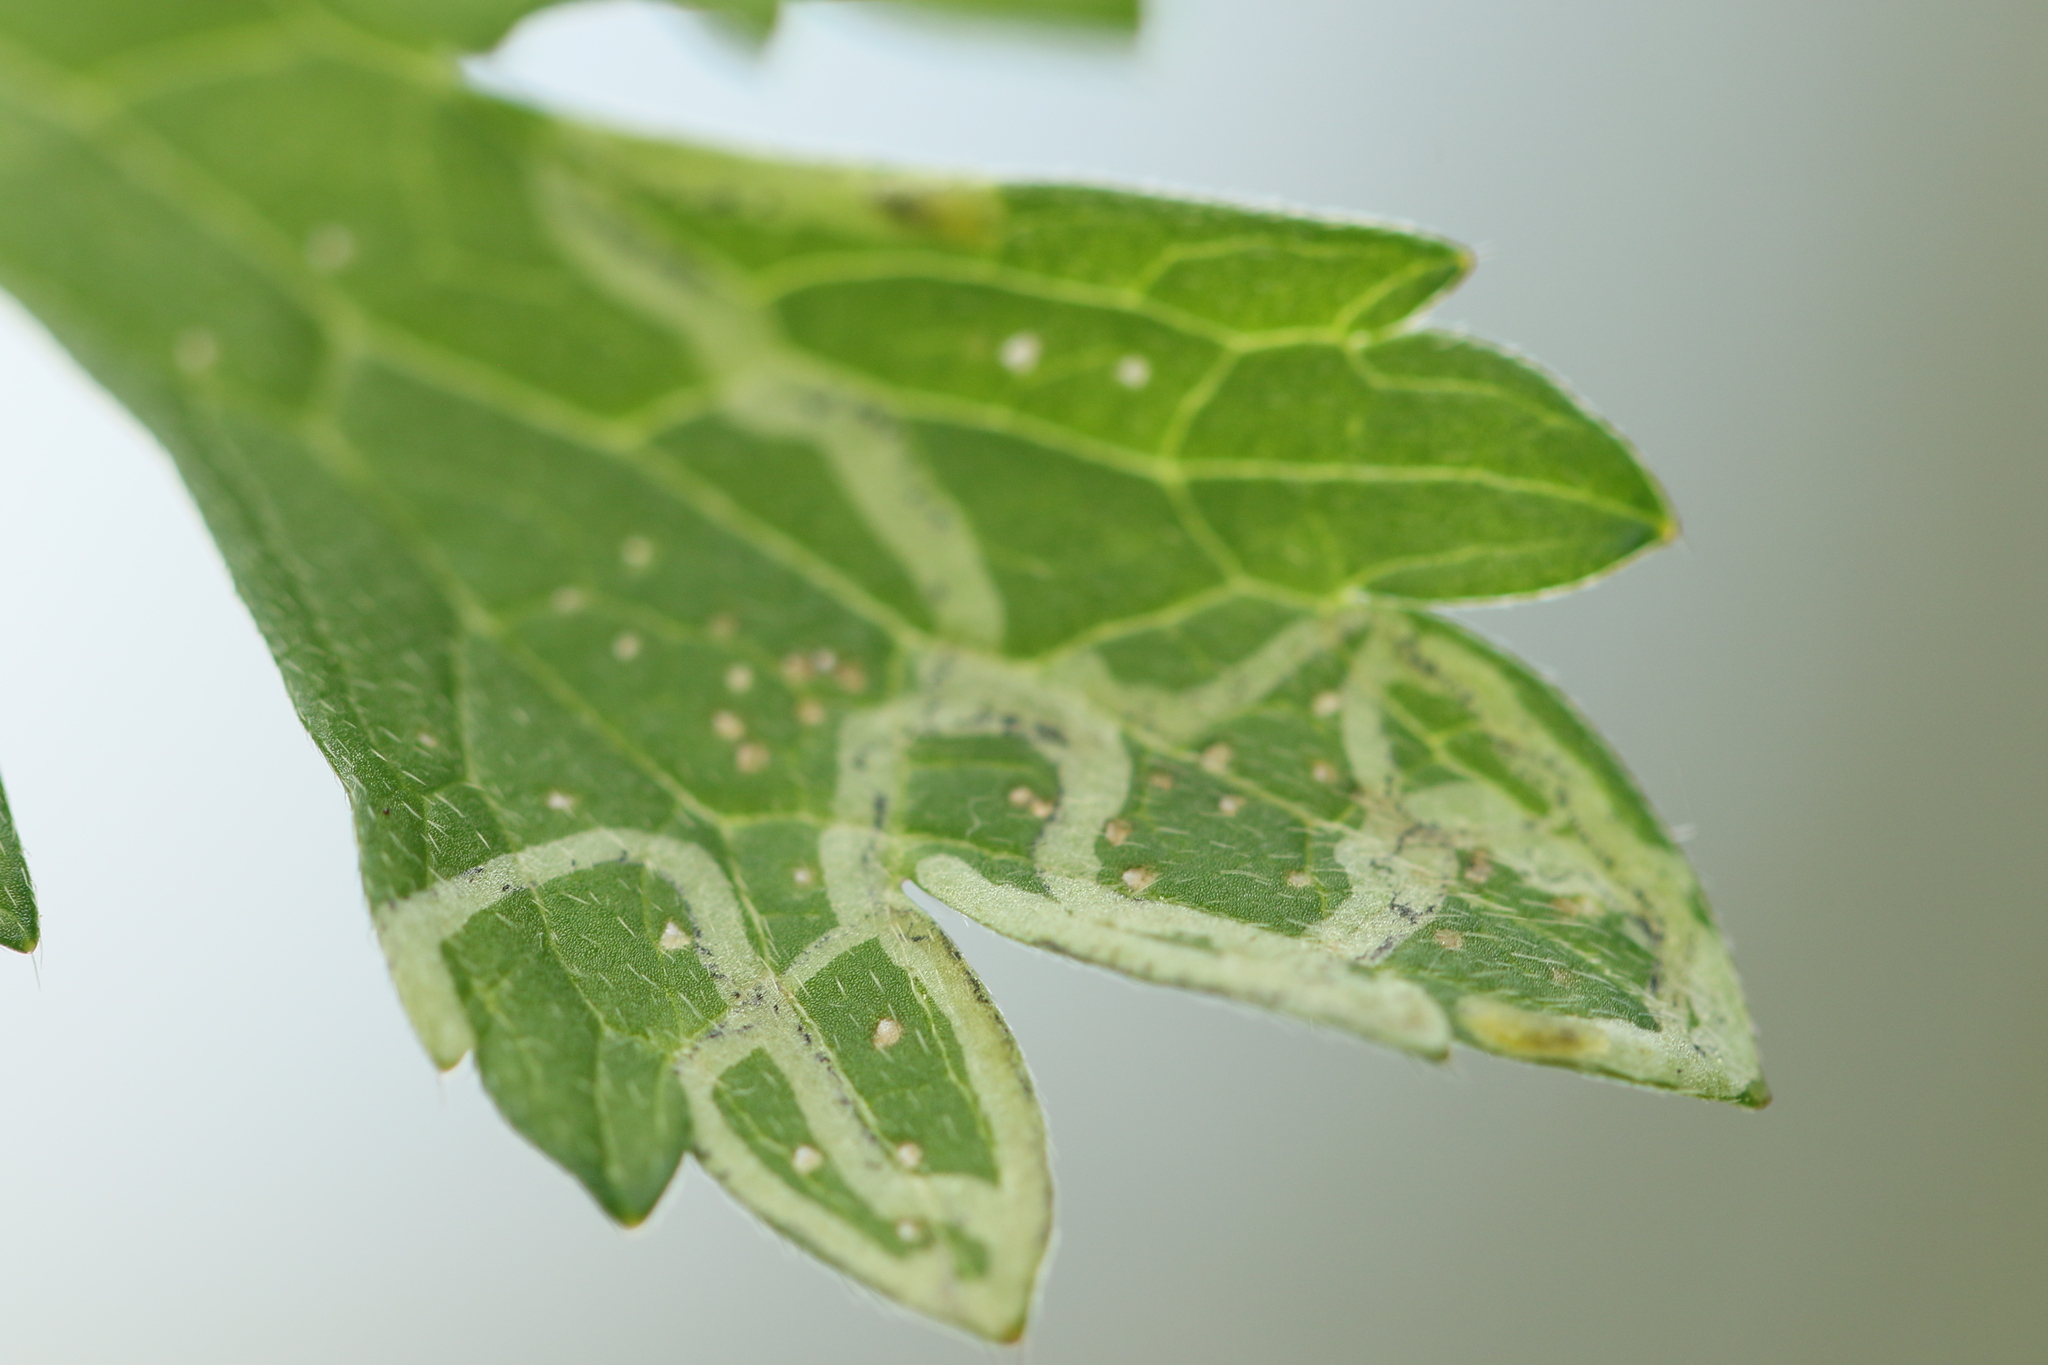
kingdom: Animalia
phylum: Arthropoda
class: Insecta
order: Diptera
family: Agromyzidae
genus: Phytomyza
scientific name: Phytomyza ranunculi
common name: Leaf-miner fly
